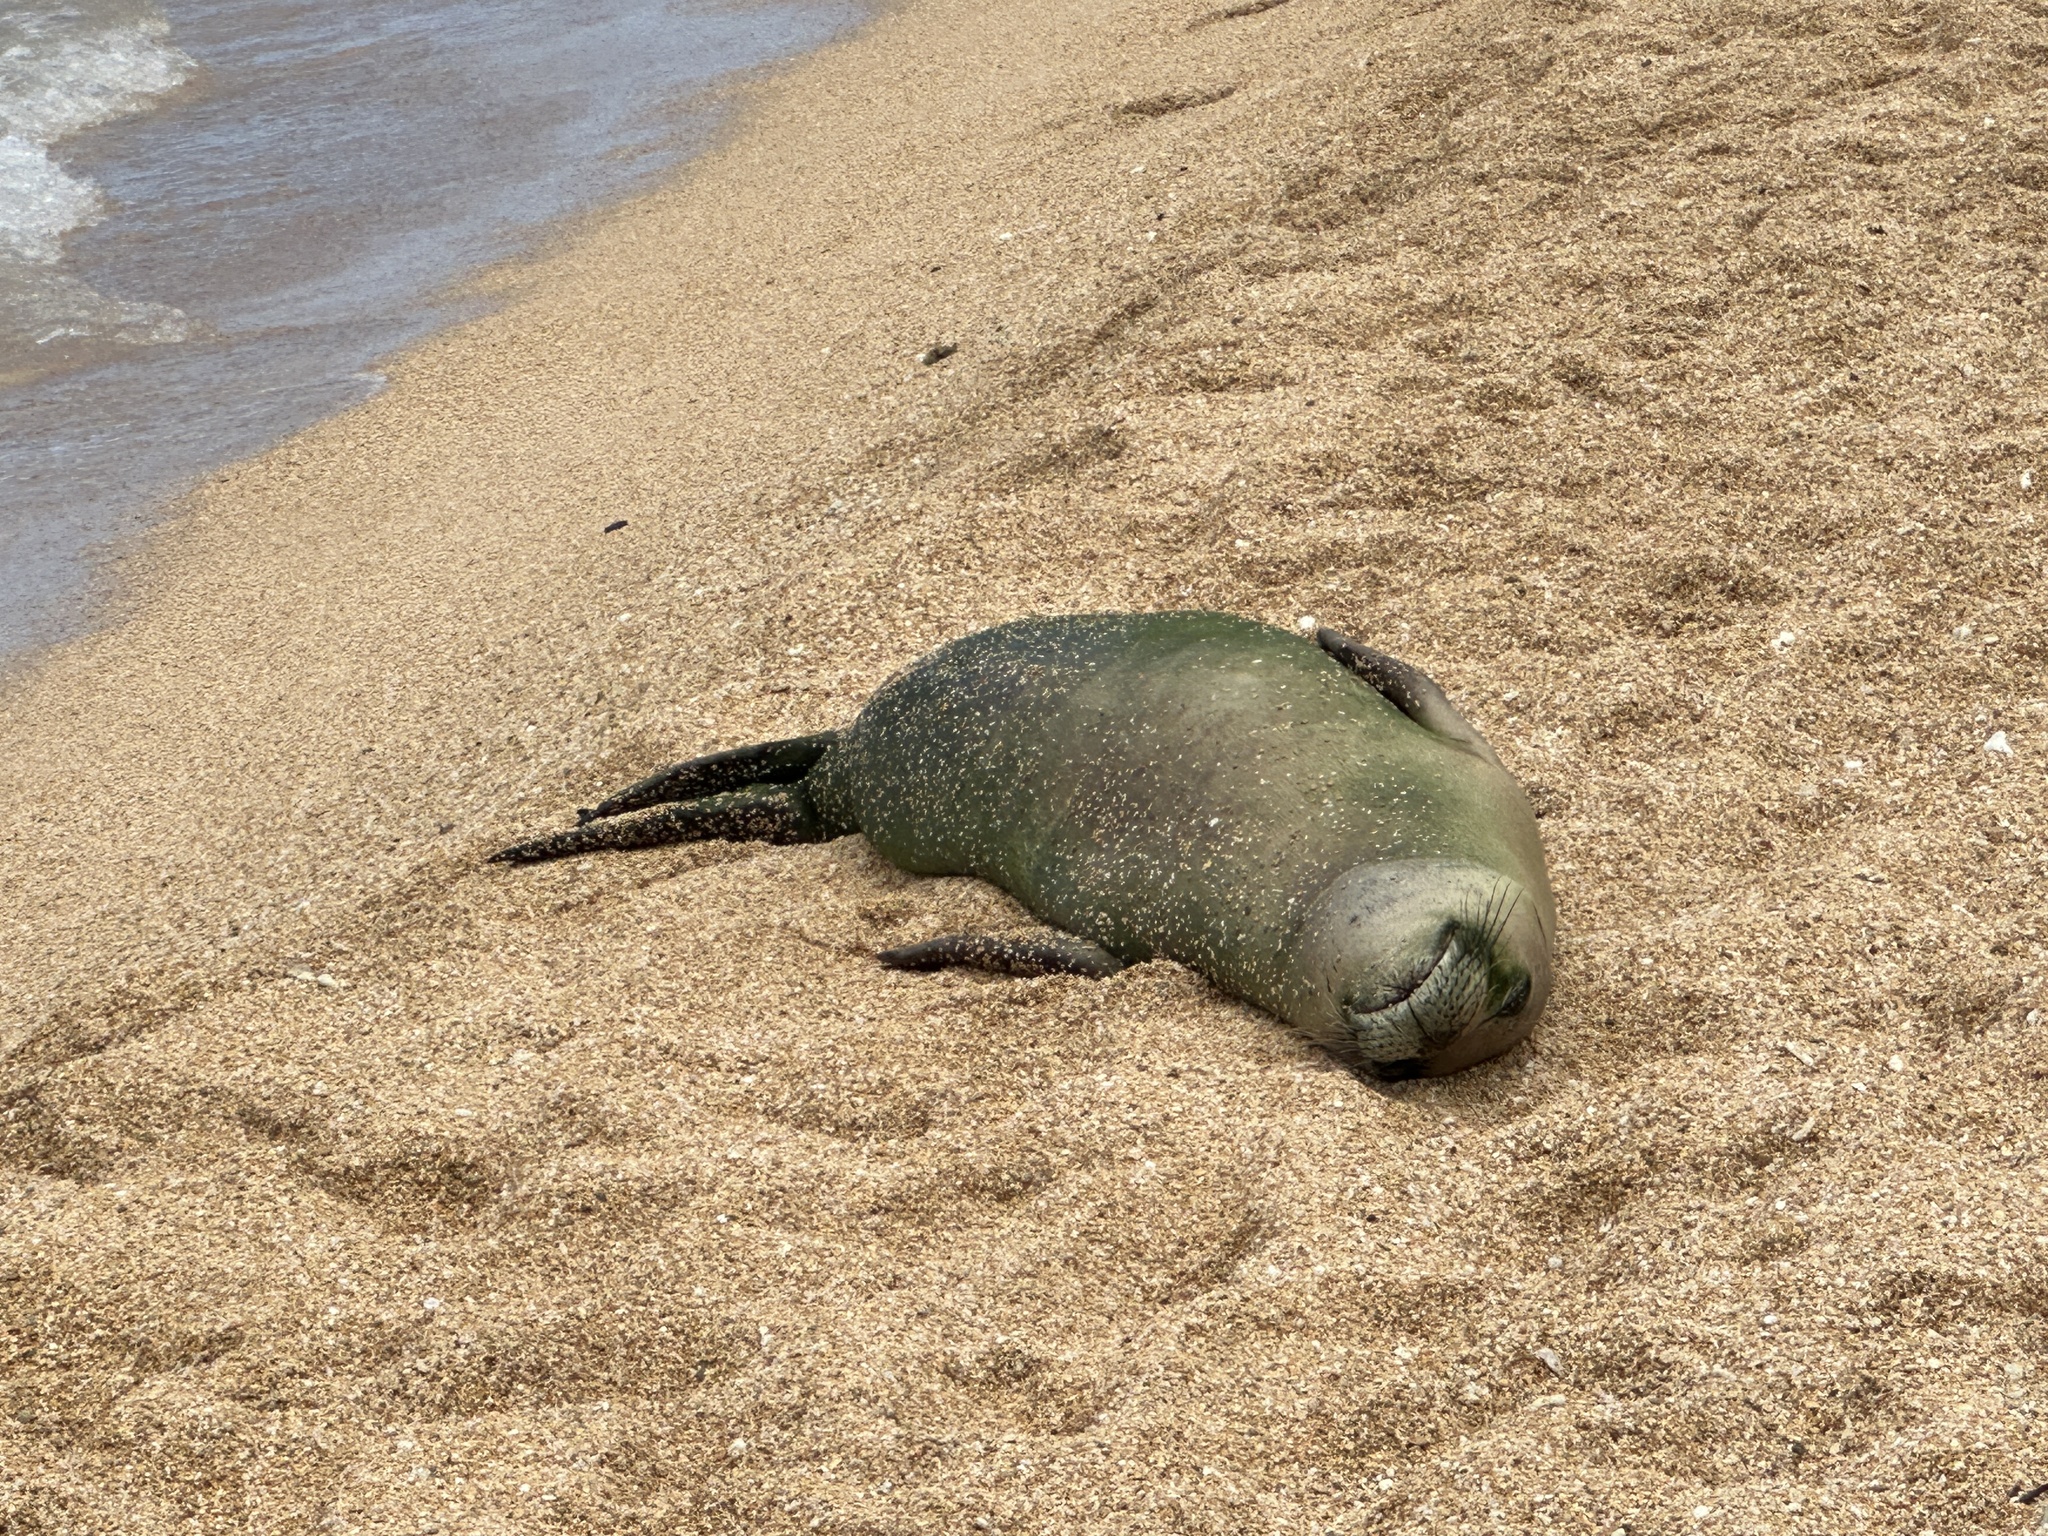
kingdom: Animalia
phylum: Chordata
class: Mammalia
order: Carnivora
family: Phocidae
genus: Neomonachus
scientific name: Neomonachus schauinslandi
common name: Hawaiian monk seal
